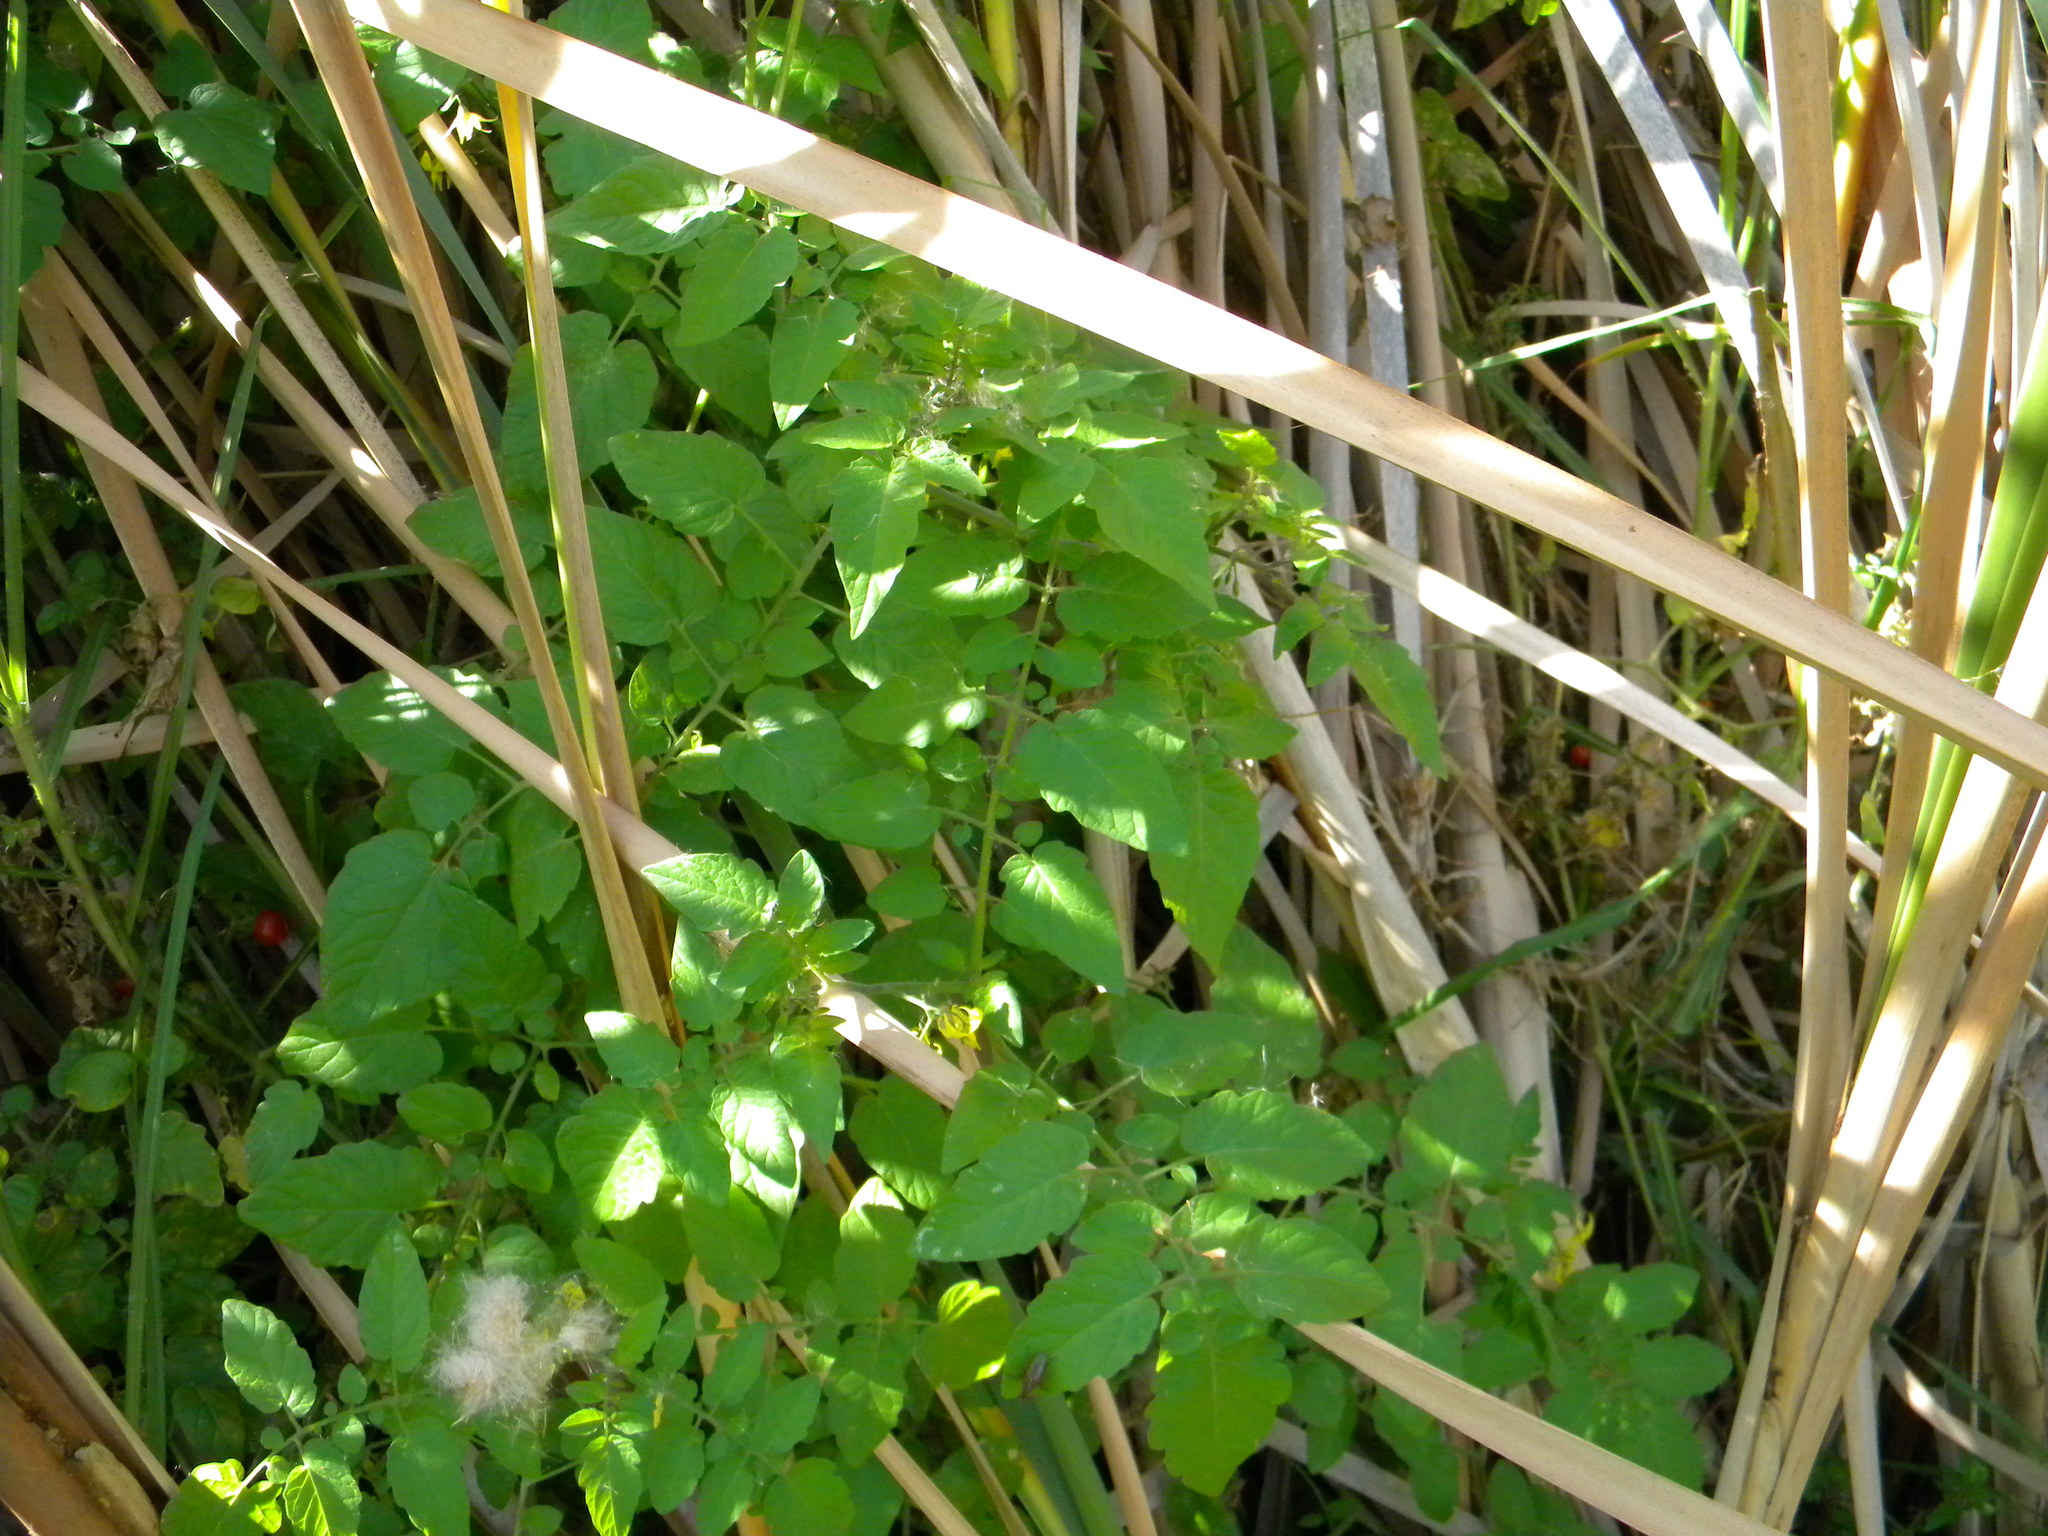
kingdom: Plantae
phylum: Tracheophyta
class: Magnoliopsida
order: Solanales
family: Solanaceae
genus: Solanum
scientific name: Solanum lycopersicum
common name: Garden tomato
